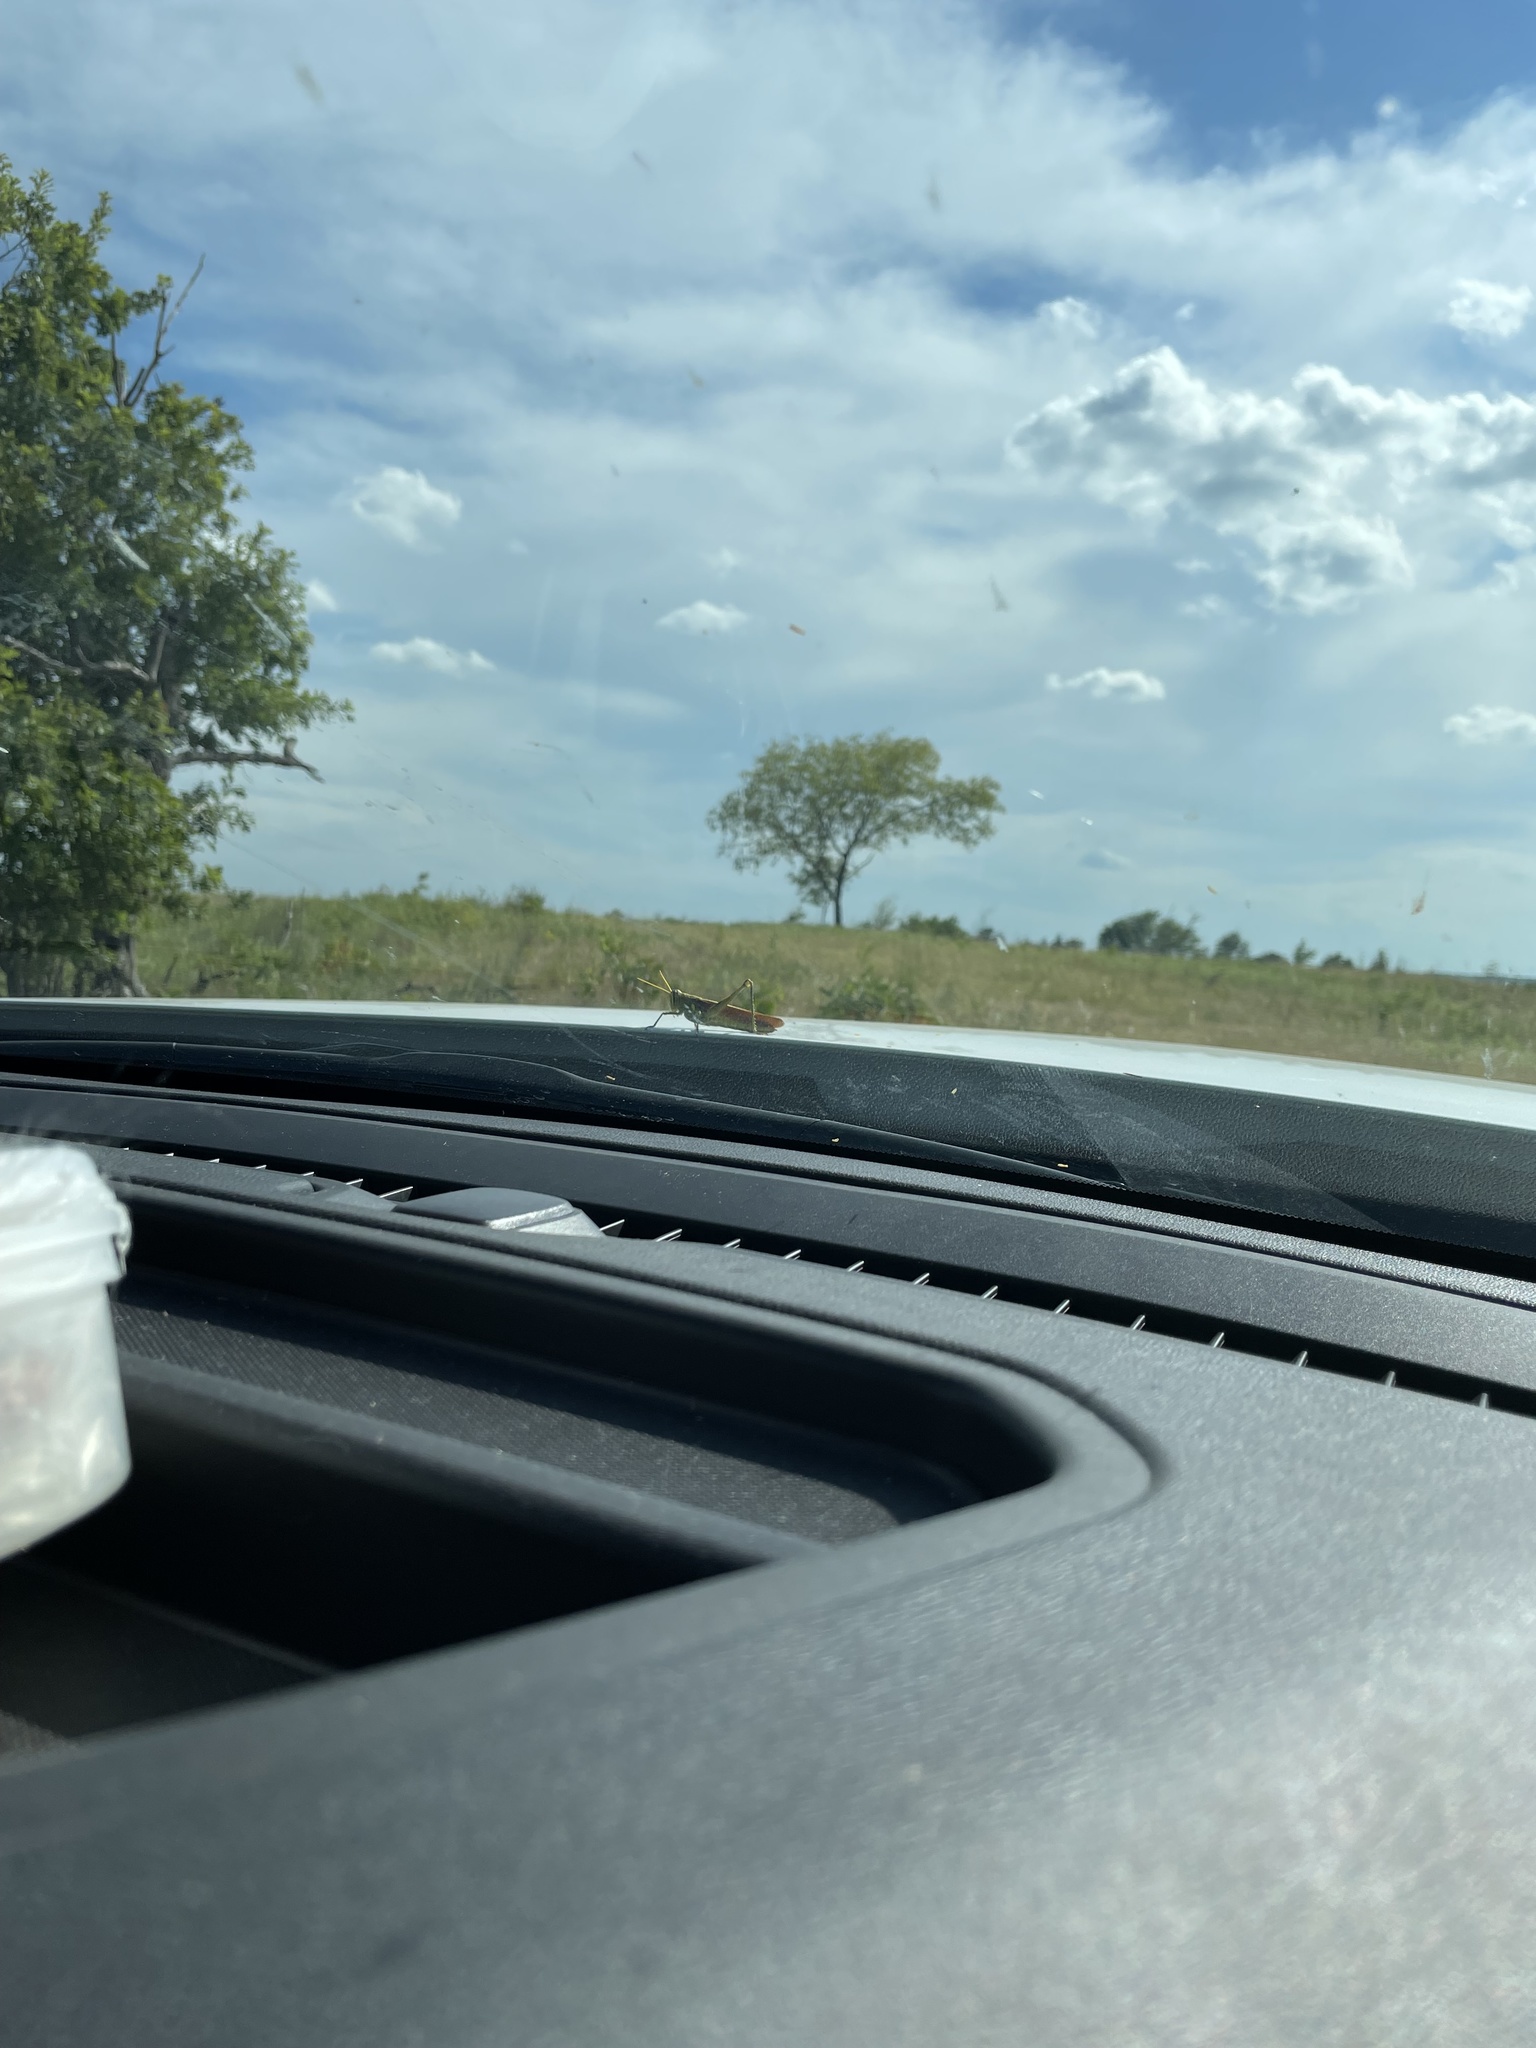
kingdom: Animalia
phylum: Arthropoda
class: Insecta
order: Orthoptera
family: Acrididae
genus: Schistocerca
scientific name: Schistocerca obscura
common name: Obscure bird grasshopper
